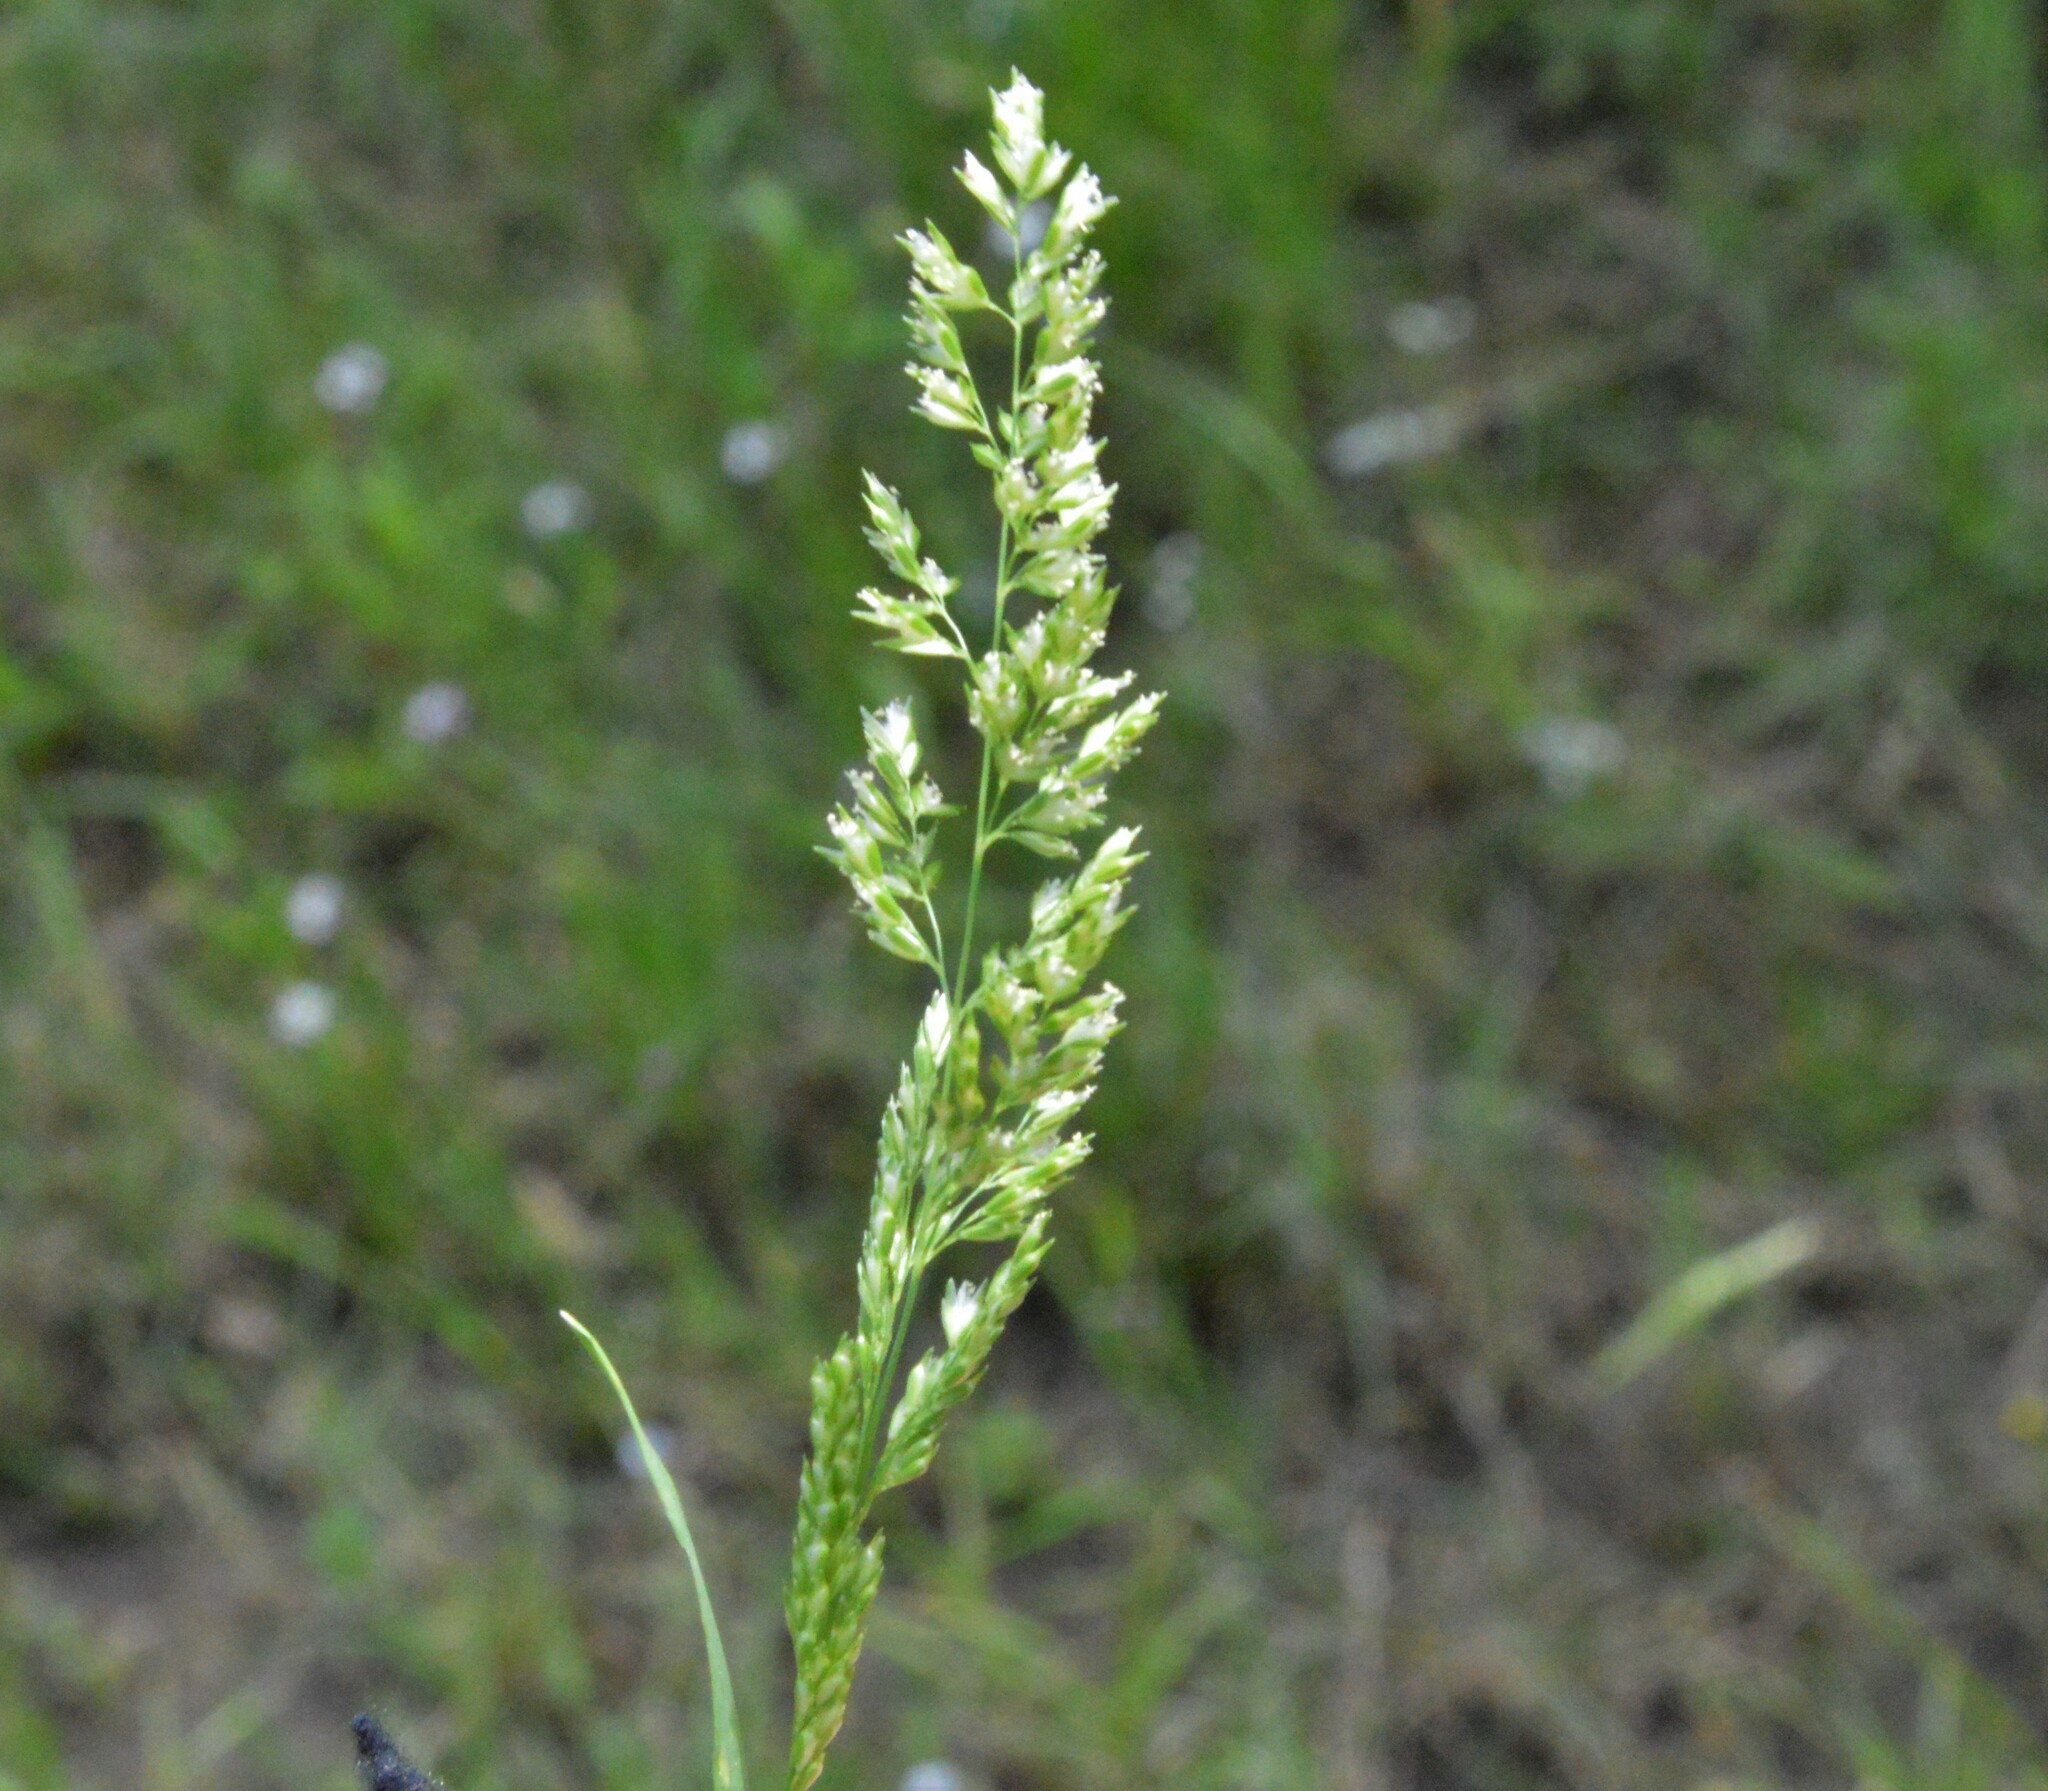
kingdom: Plantae
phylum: Tracheophyta
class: Liliopsida
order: Poales
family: Poaceae
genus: Sphenopholis
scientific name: Sphenopholis obtusata
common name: Prairie grass
